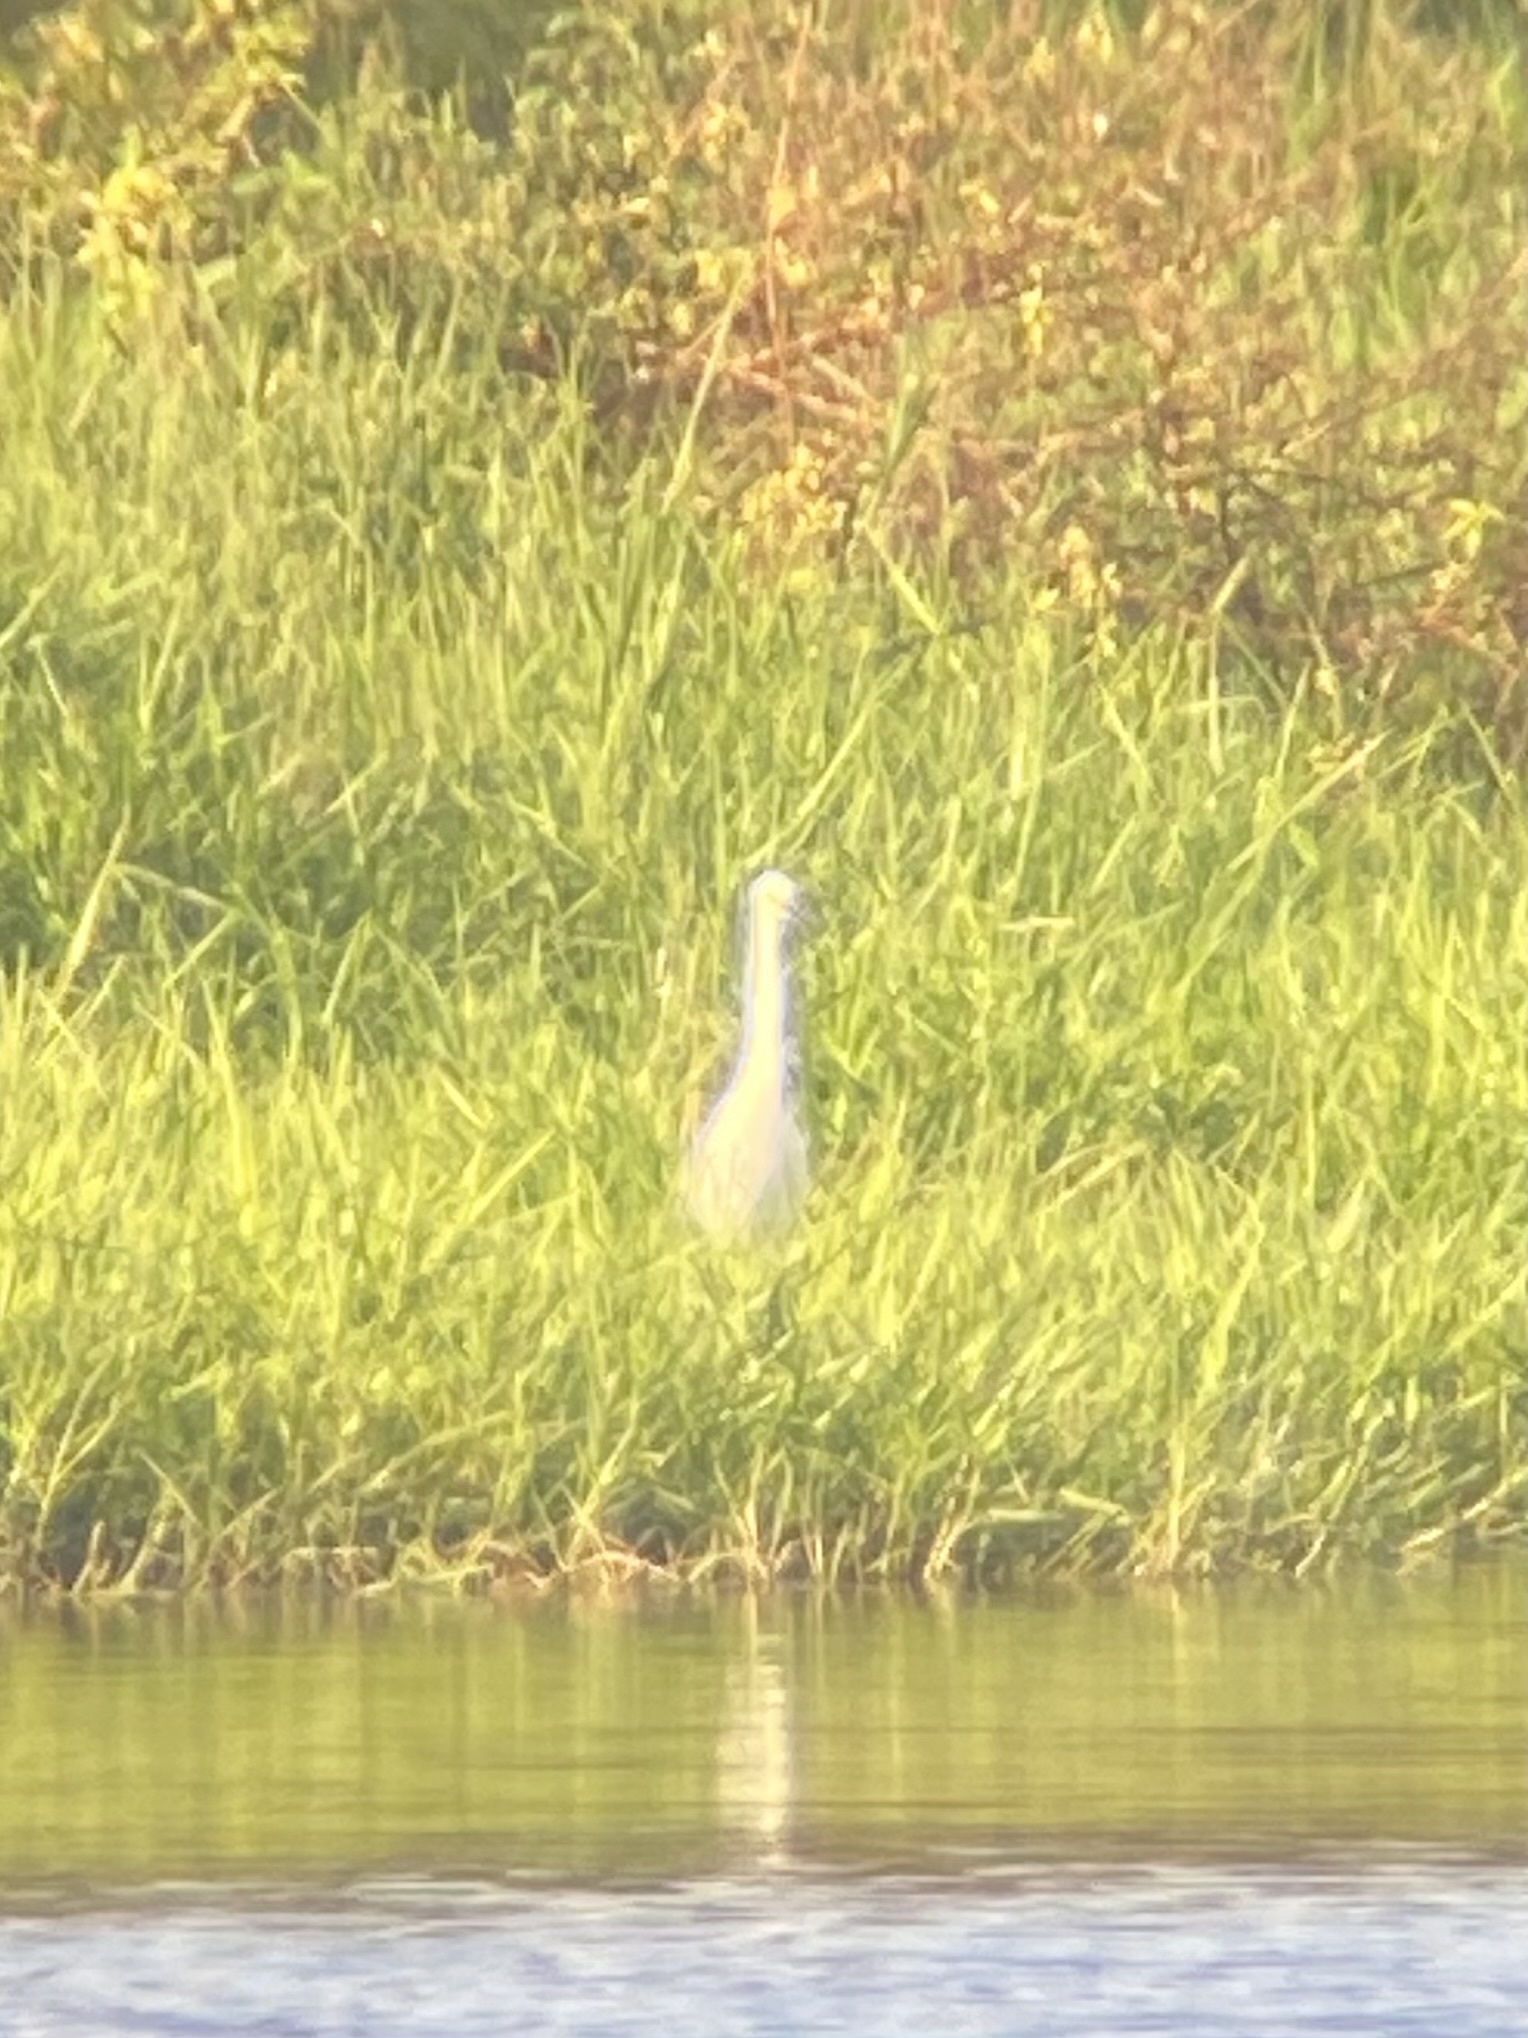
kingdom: Animalia
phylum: Chordata
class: Aves
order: Pelecaniformes
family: Ardeidae
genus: Egretta
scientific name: Egretta thula
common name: Snowy egret
